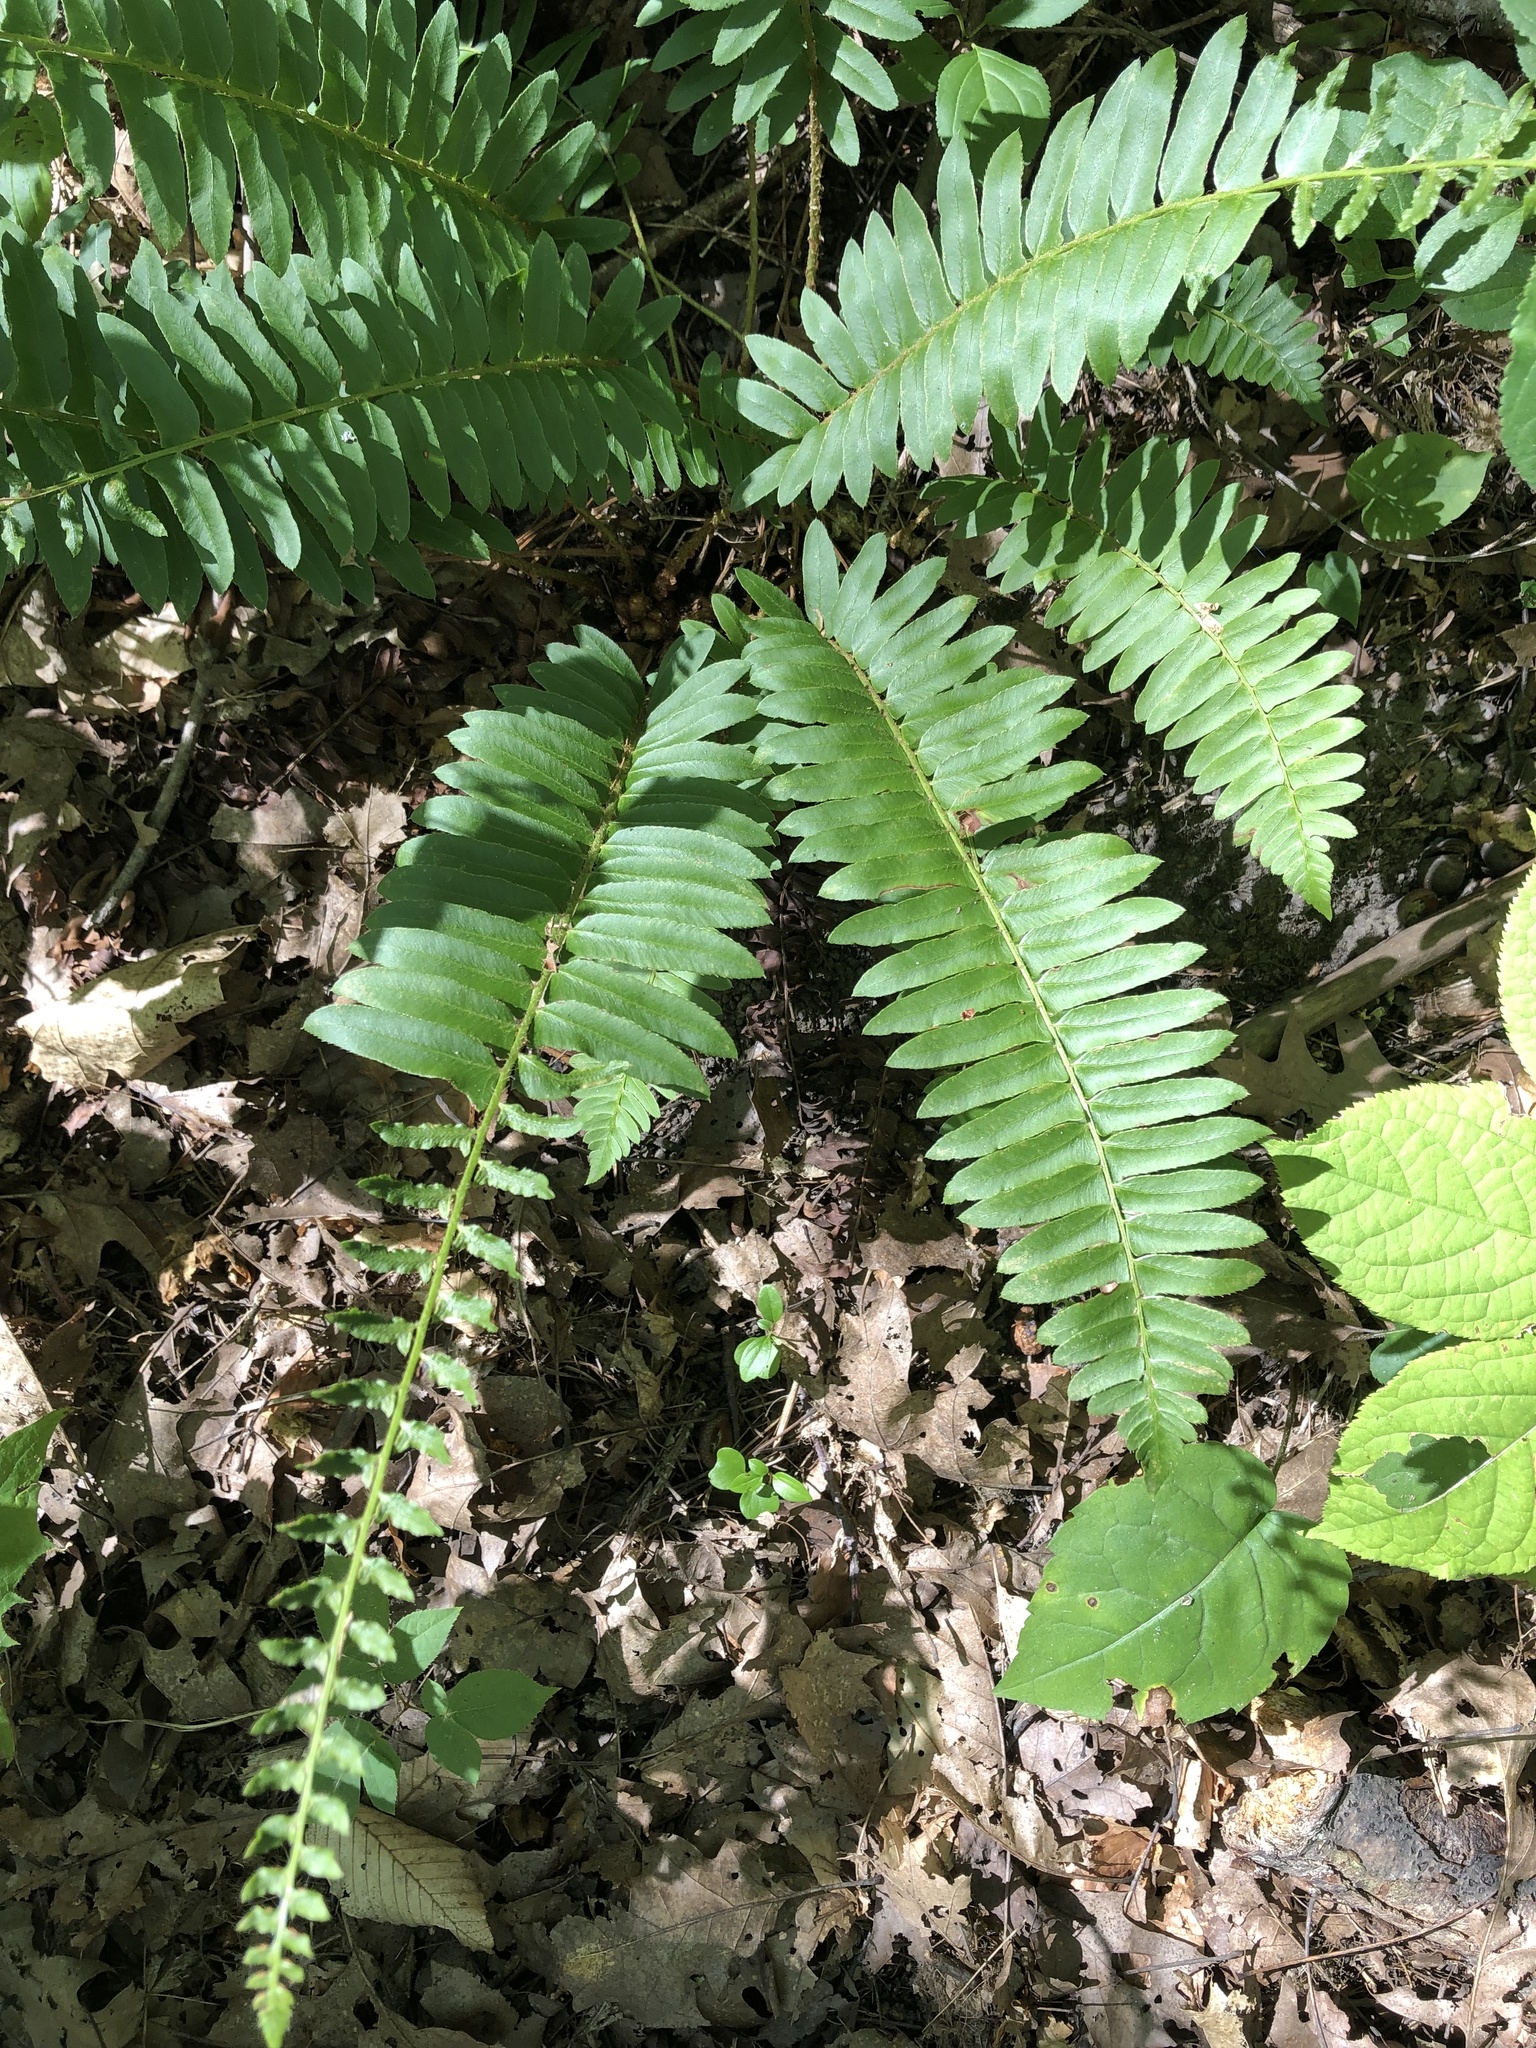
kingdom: Plantae
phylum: Tracheophyta
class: Polypodiopsida
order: Polypodiales
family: Dryopteridaceae
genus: Polystichum
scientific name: Polystichum acrostichoides
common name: Christmas fern
